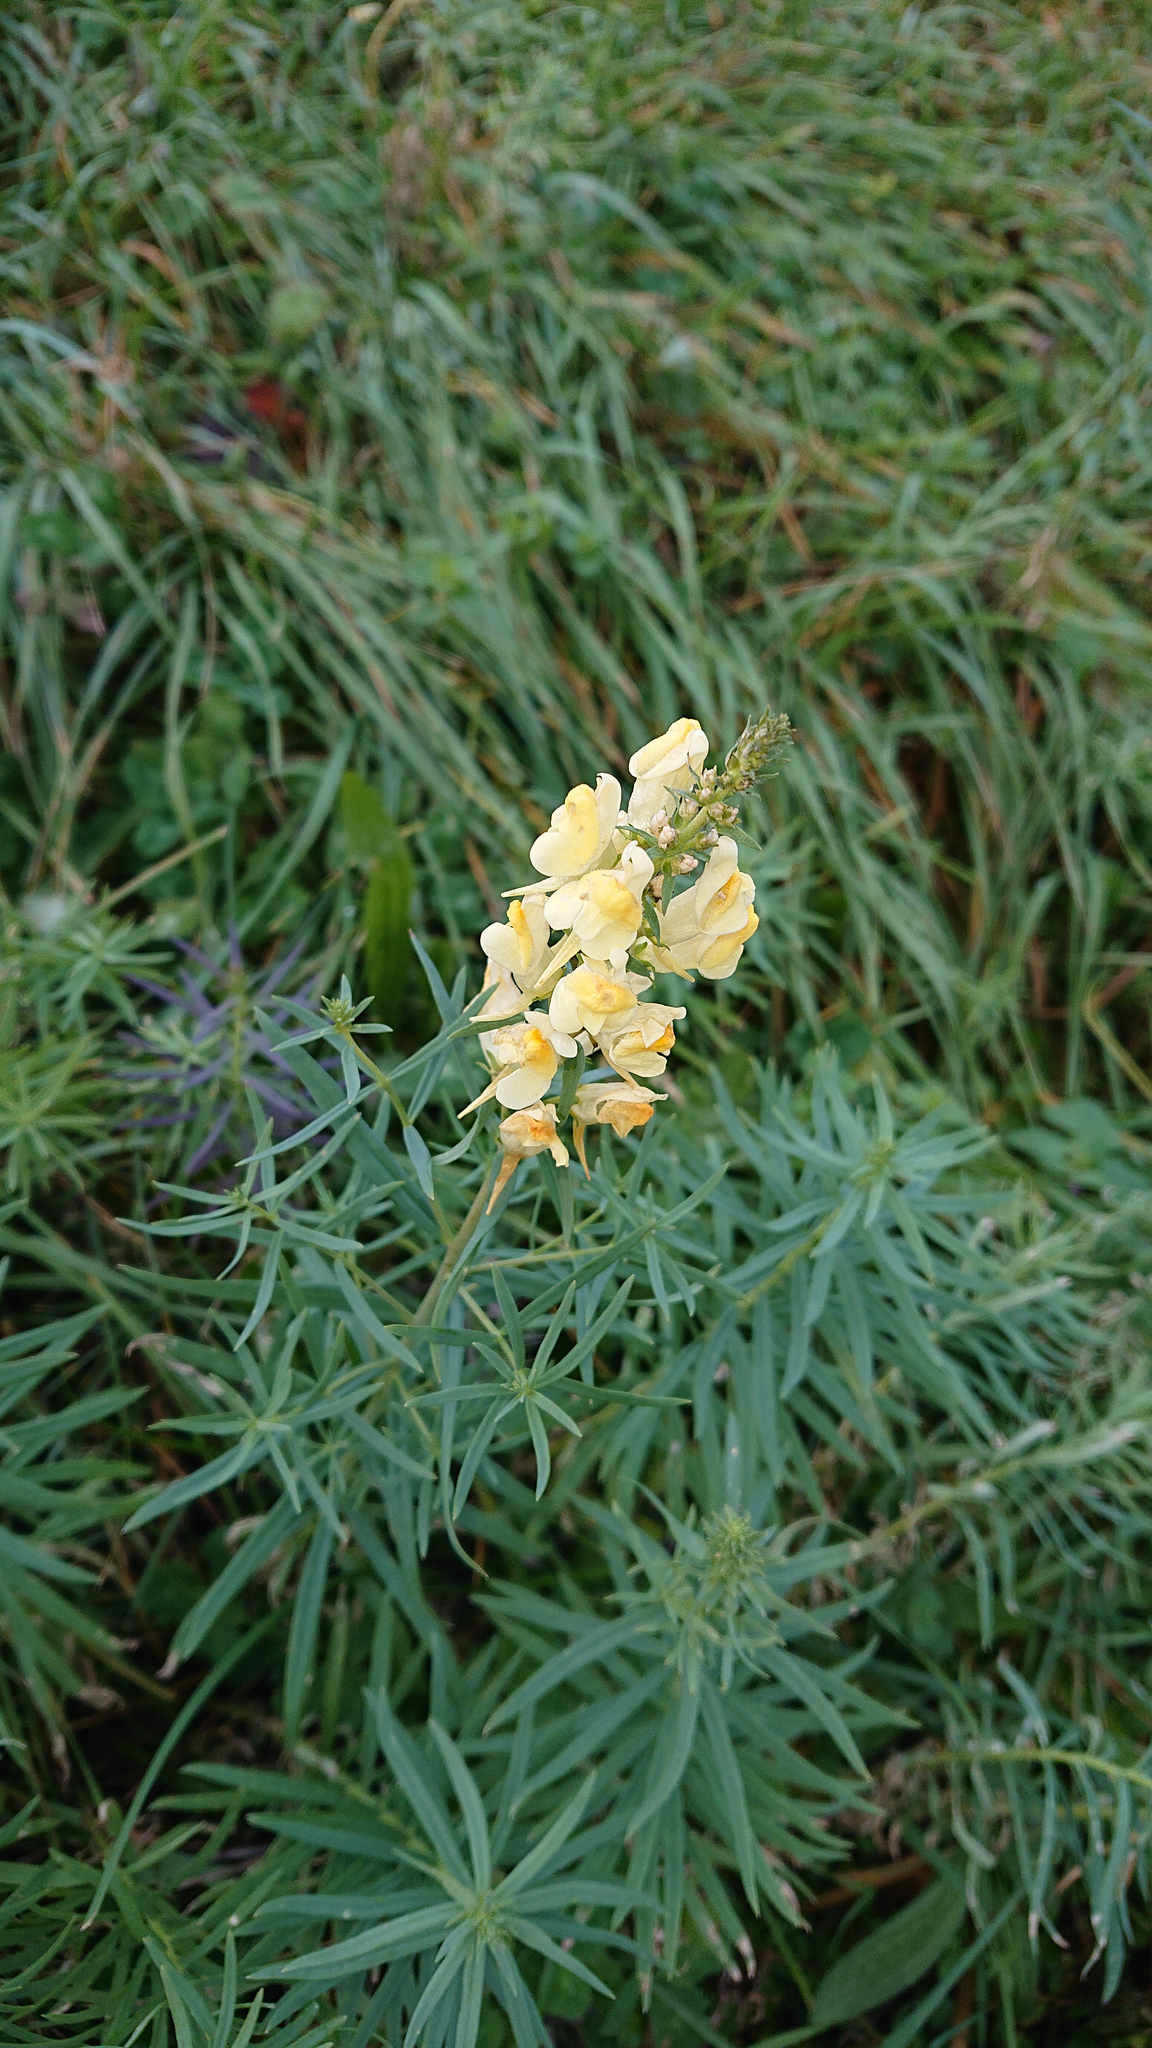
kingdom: Plantae
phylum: Tracheophyta
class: Magnoliopsida
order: Lamiales
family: Plantaginaceae
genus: Linaria
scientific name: Linaria vulgaris
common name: Butter and eggs
